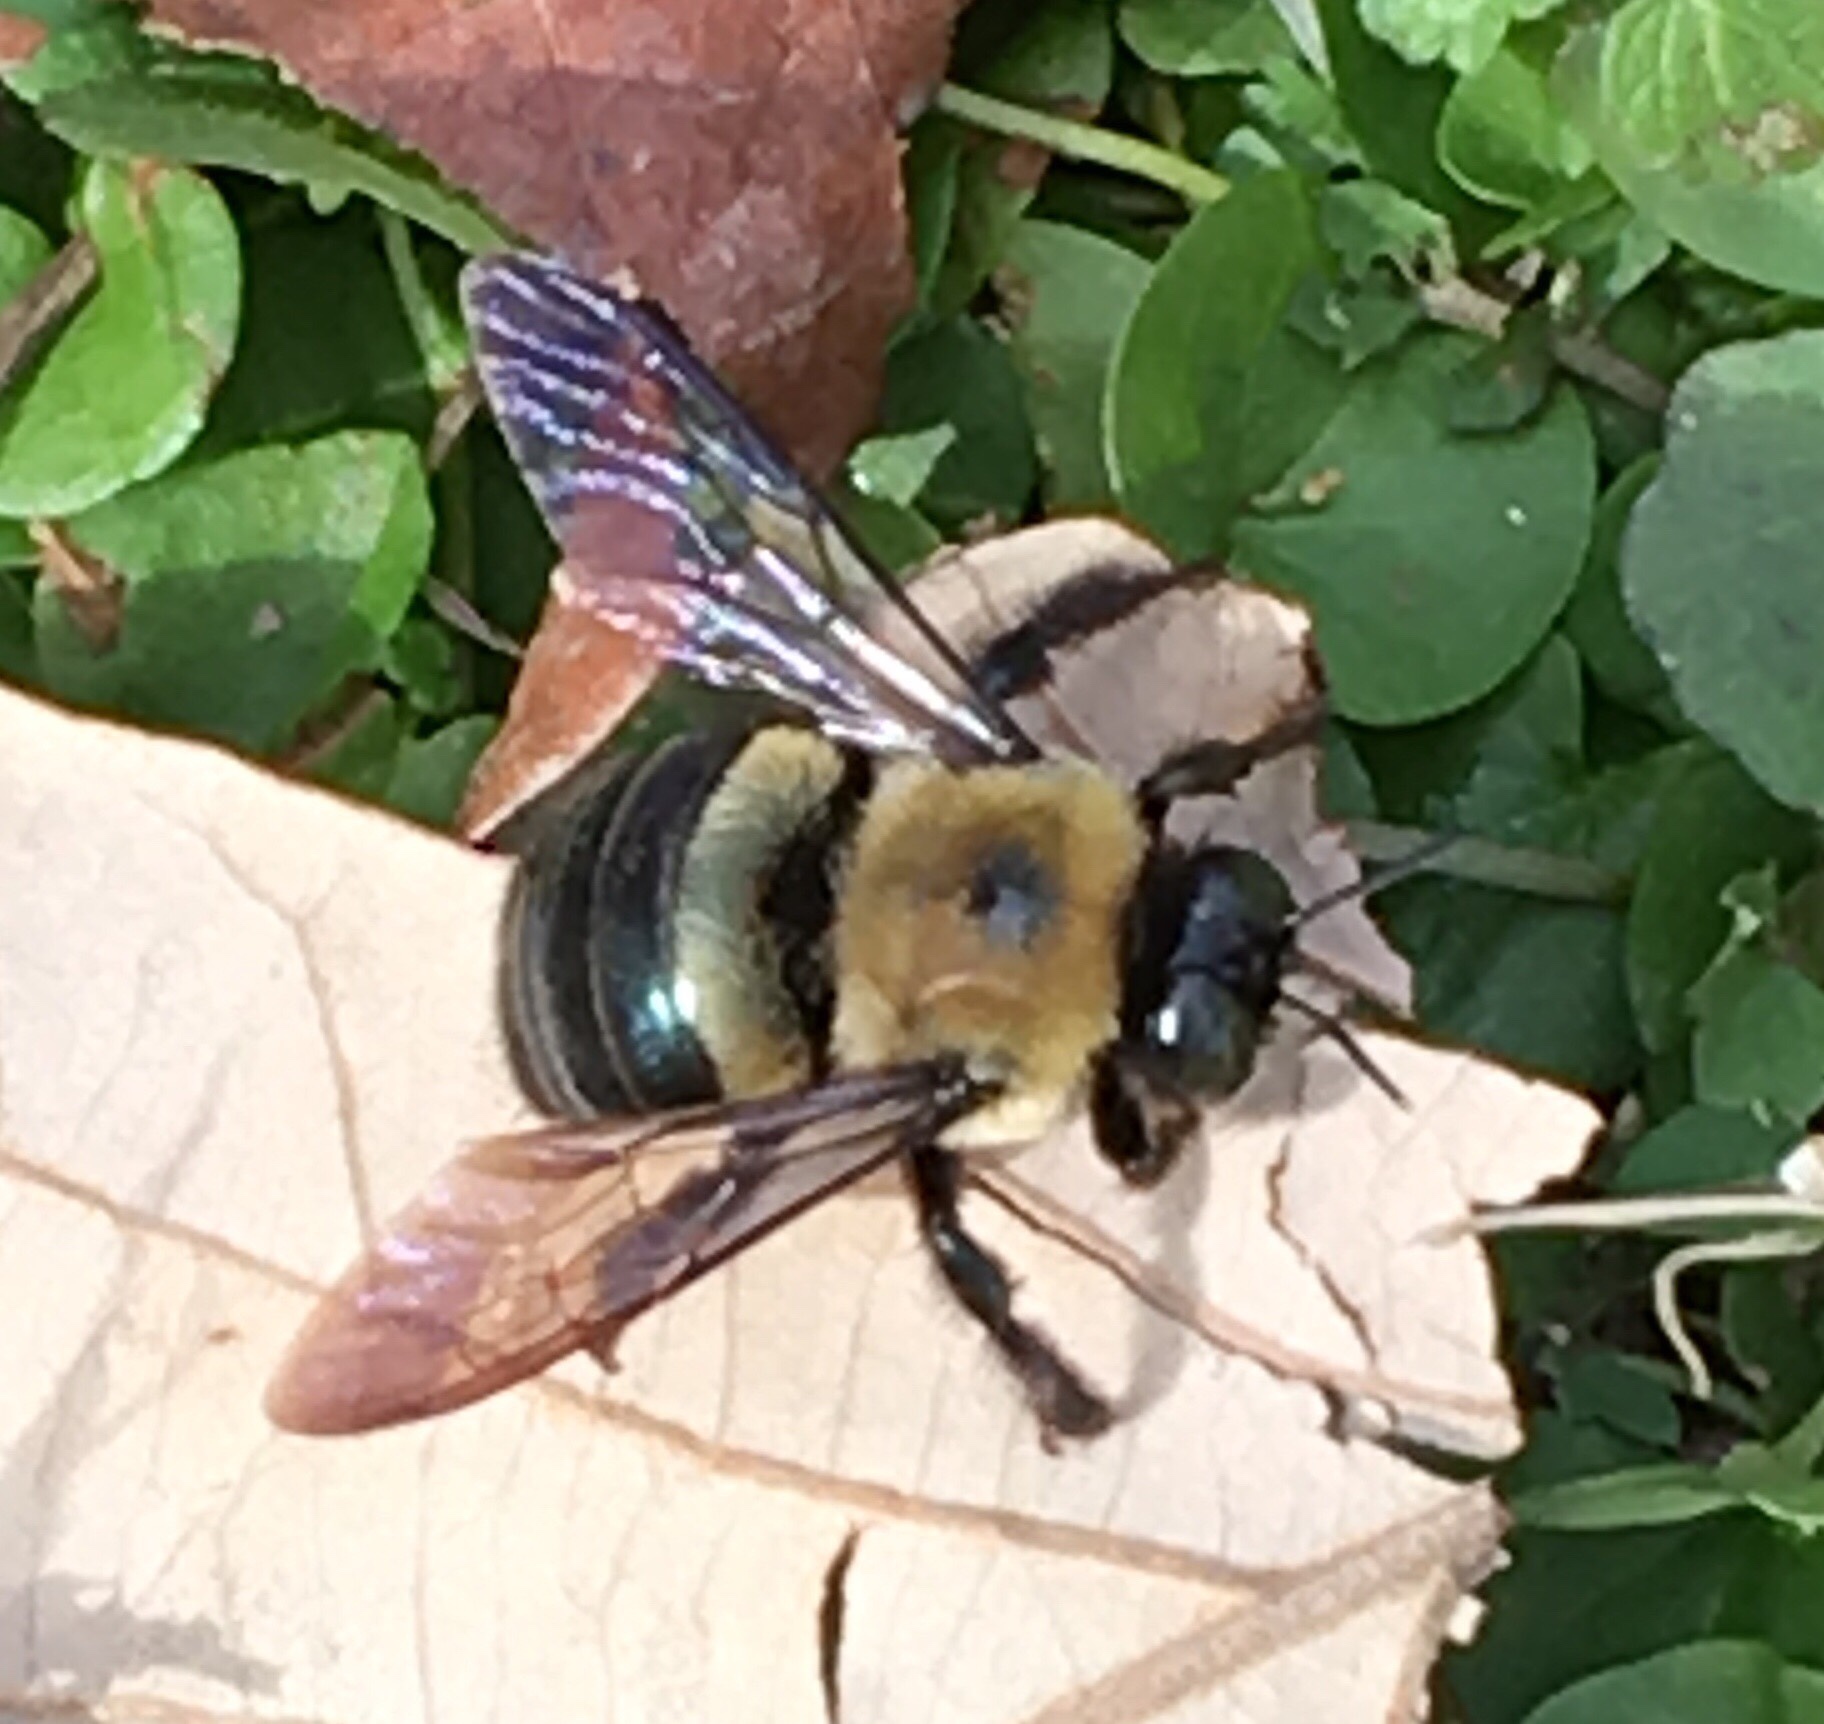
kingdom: Animalia
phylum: Arthropoda
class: Insecta
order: Hymenoptera
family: Apidae
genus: Xylocopa
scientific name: Xylocopa virginica
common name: Carpenter bee
